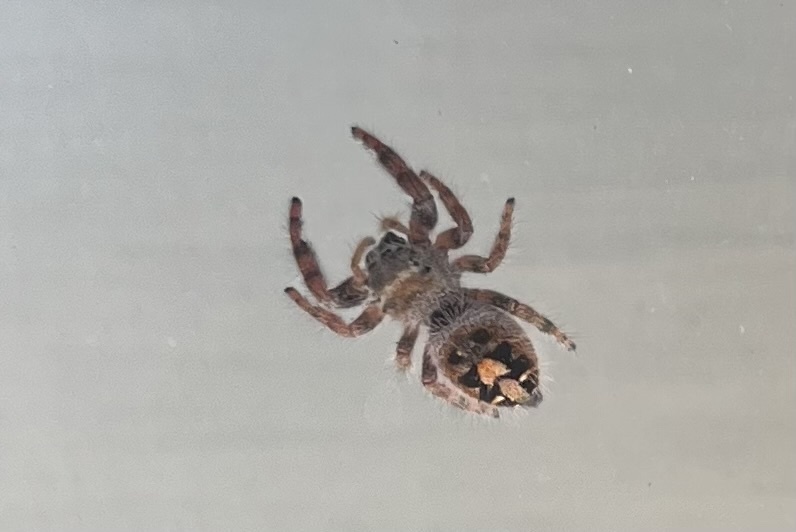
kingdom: Animalia
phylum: Arthropoda
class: Arachnida
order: Araneae
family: Salticidae
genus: Phidippus
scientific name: Phidippus audax
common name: Bold jumper
